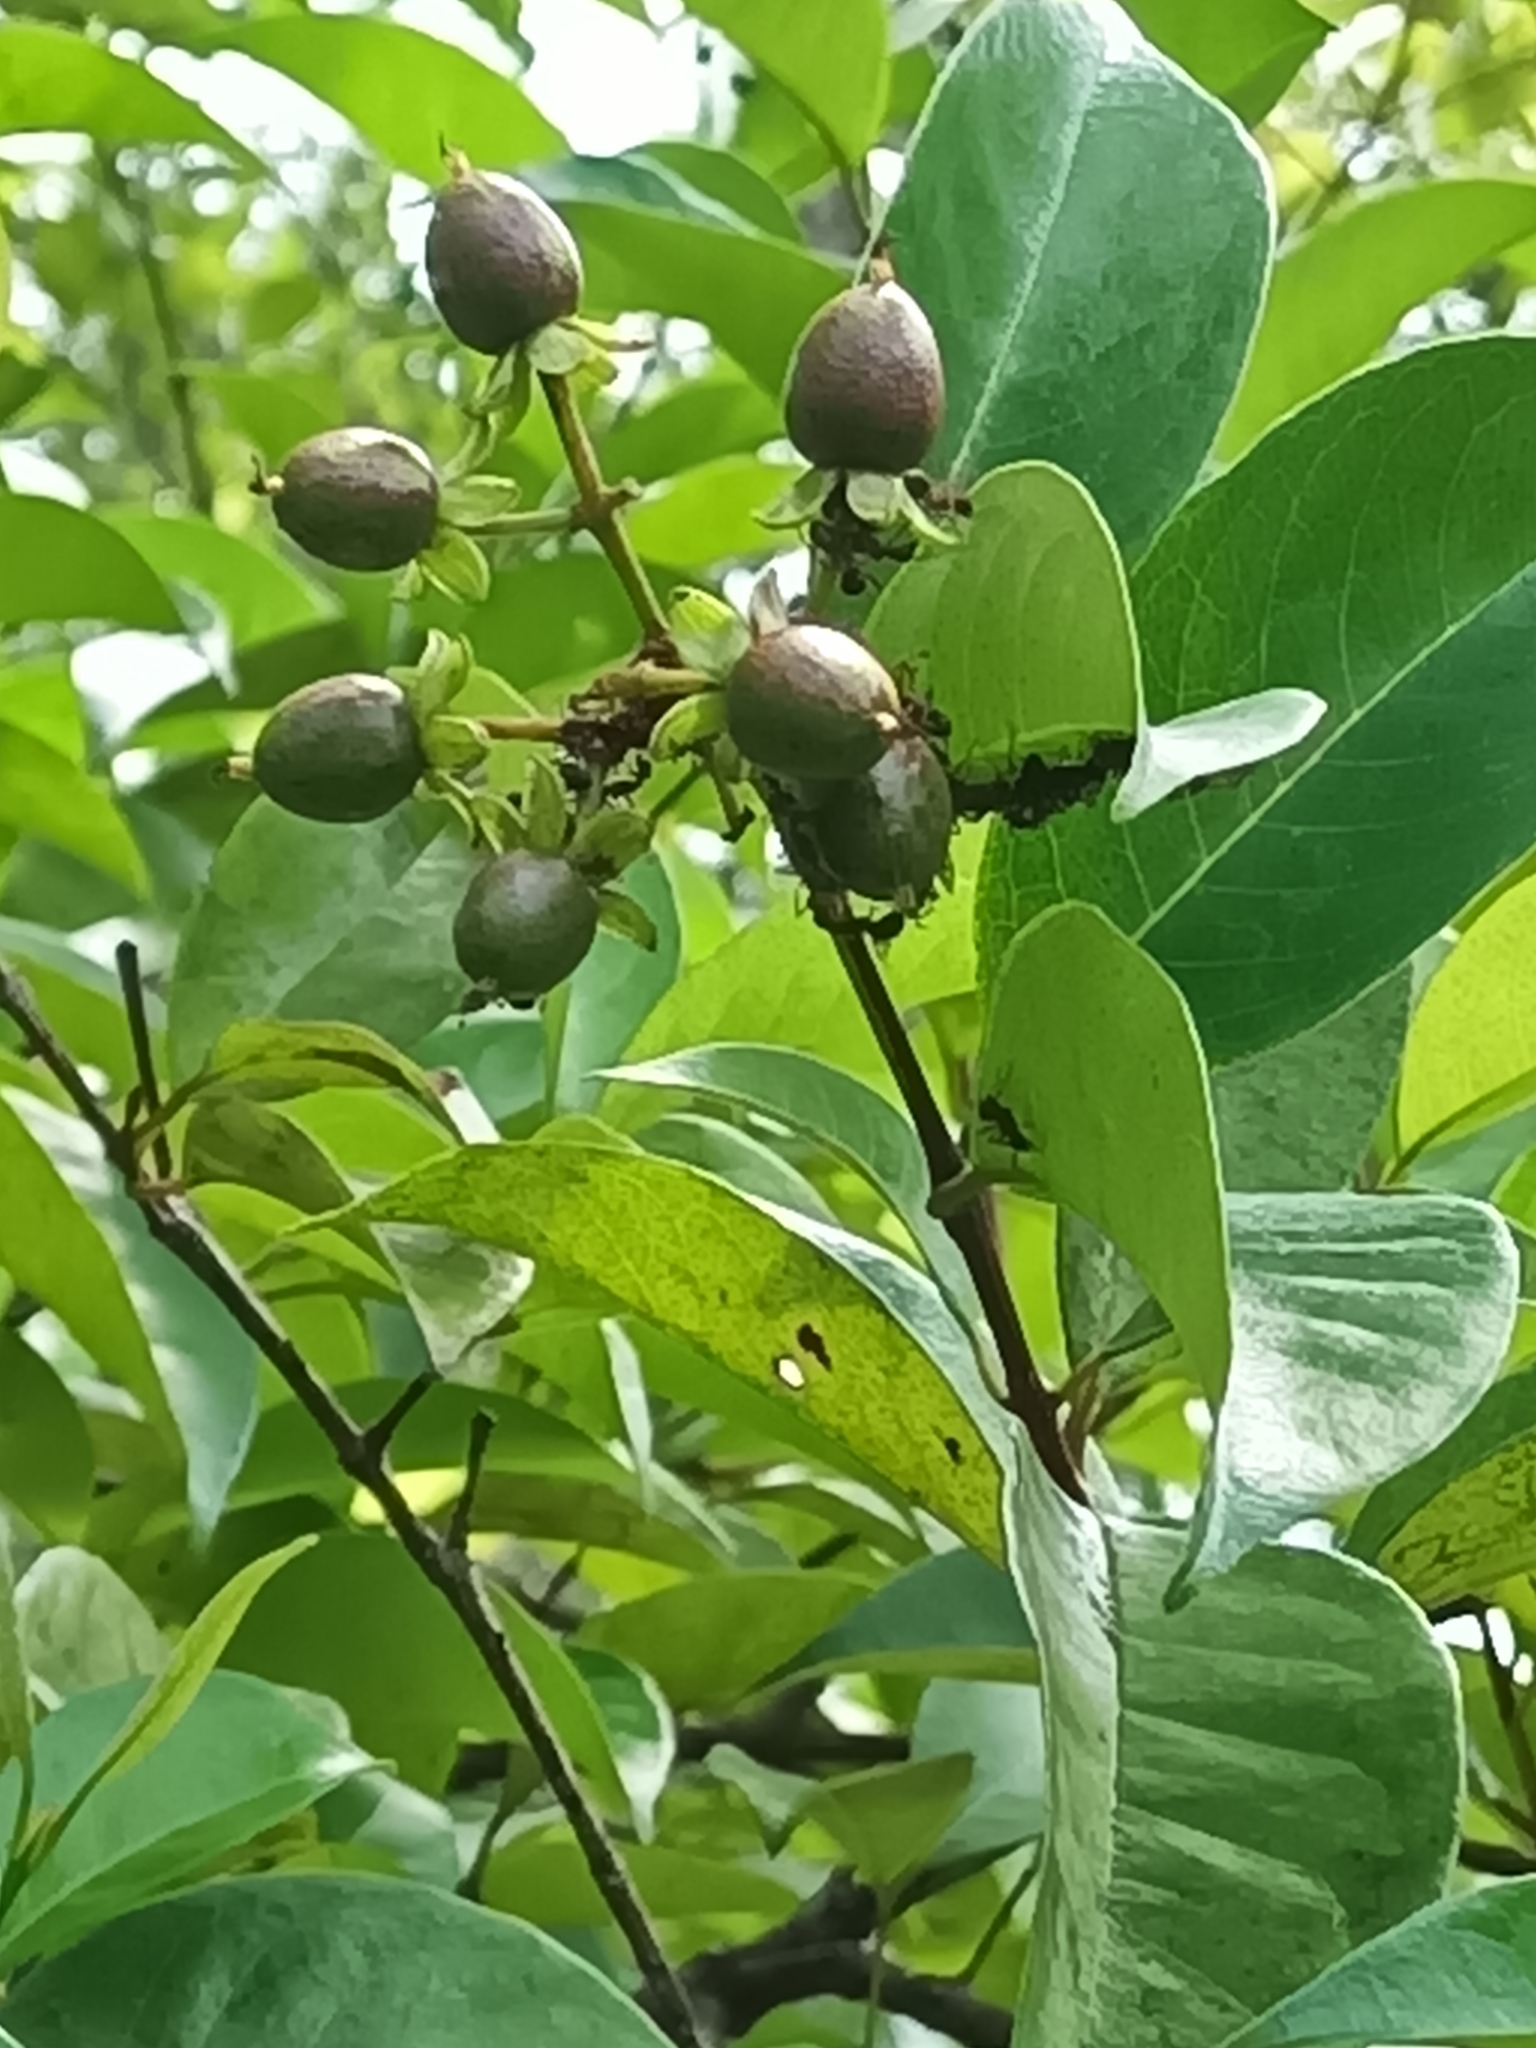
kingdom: Plantae
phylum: Tracheophyta
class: Magnoliopsida
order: Malpighiales
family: Hypericaceae
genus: Vismia
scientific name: Vismia cayennensis
